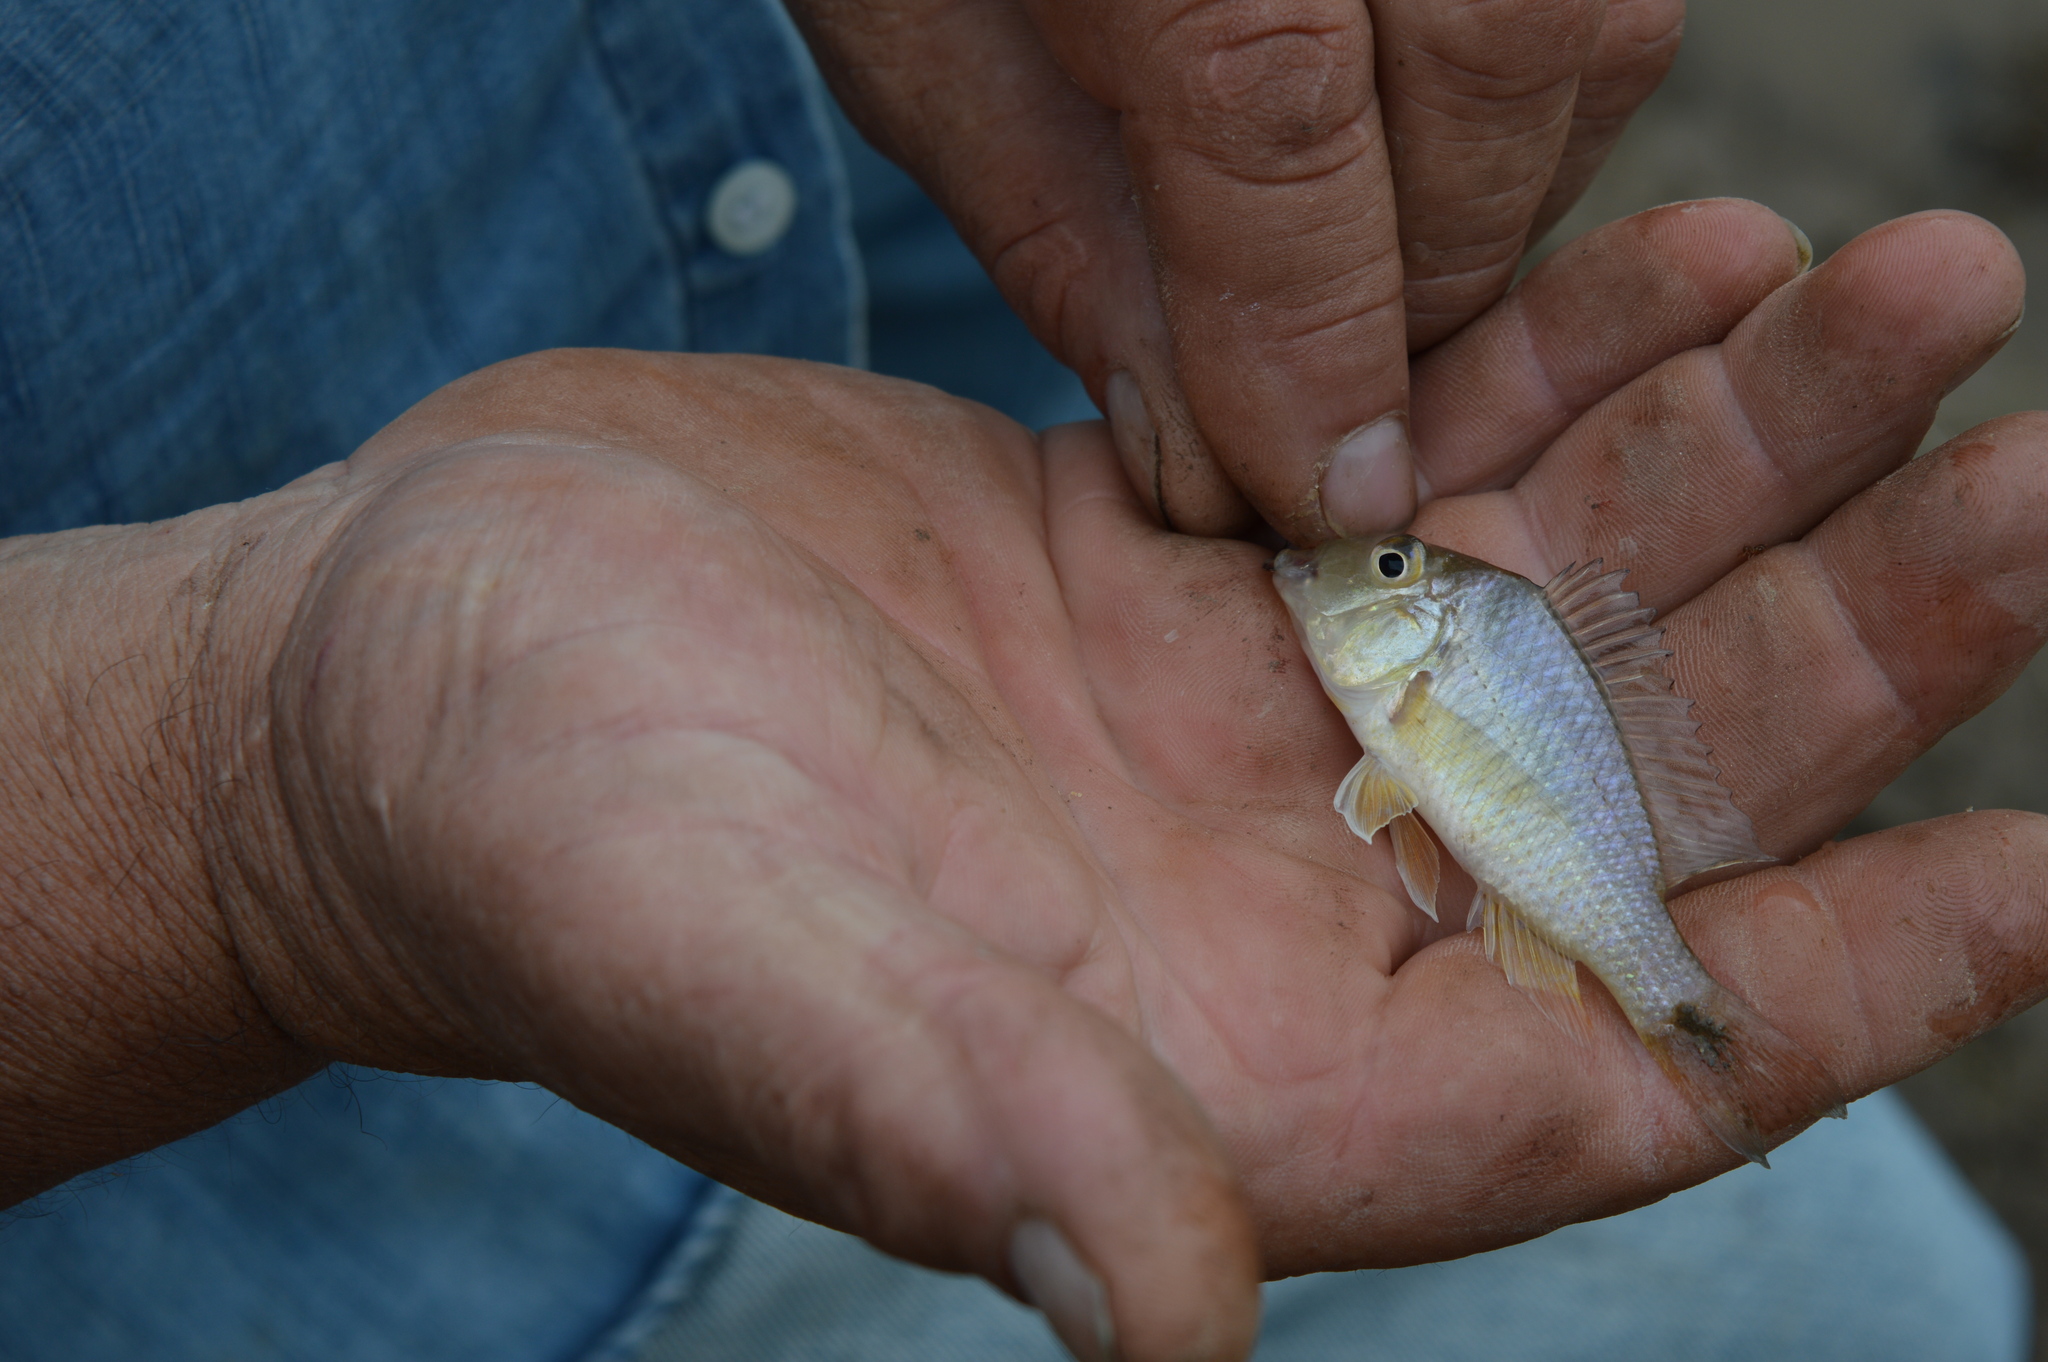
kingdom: Animalia
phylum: Chordata
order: Perciformes
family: Cichlidae
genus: Gymnogeophagus
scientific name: Gymnogeophagus australis
